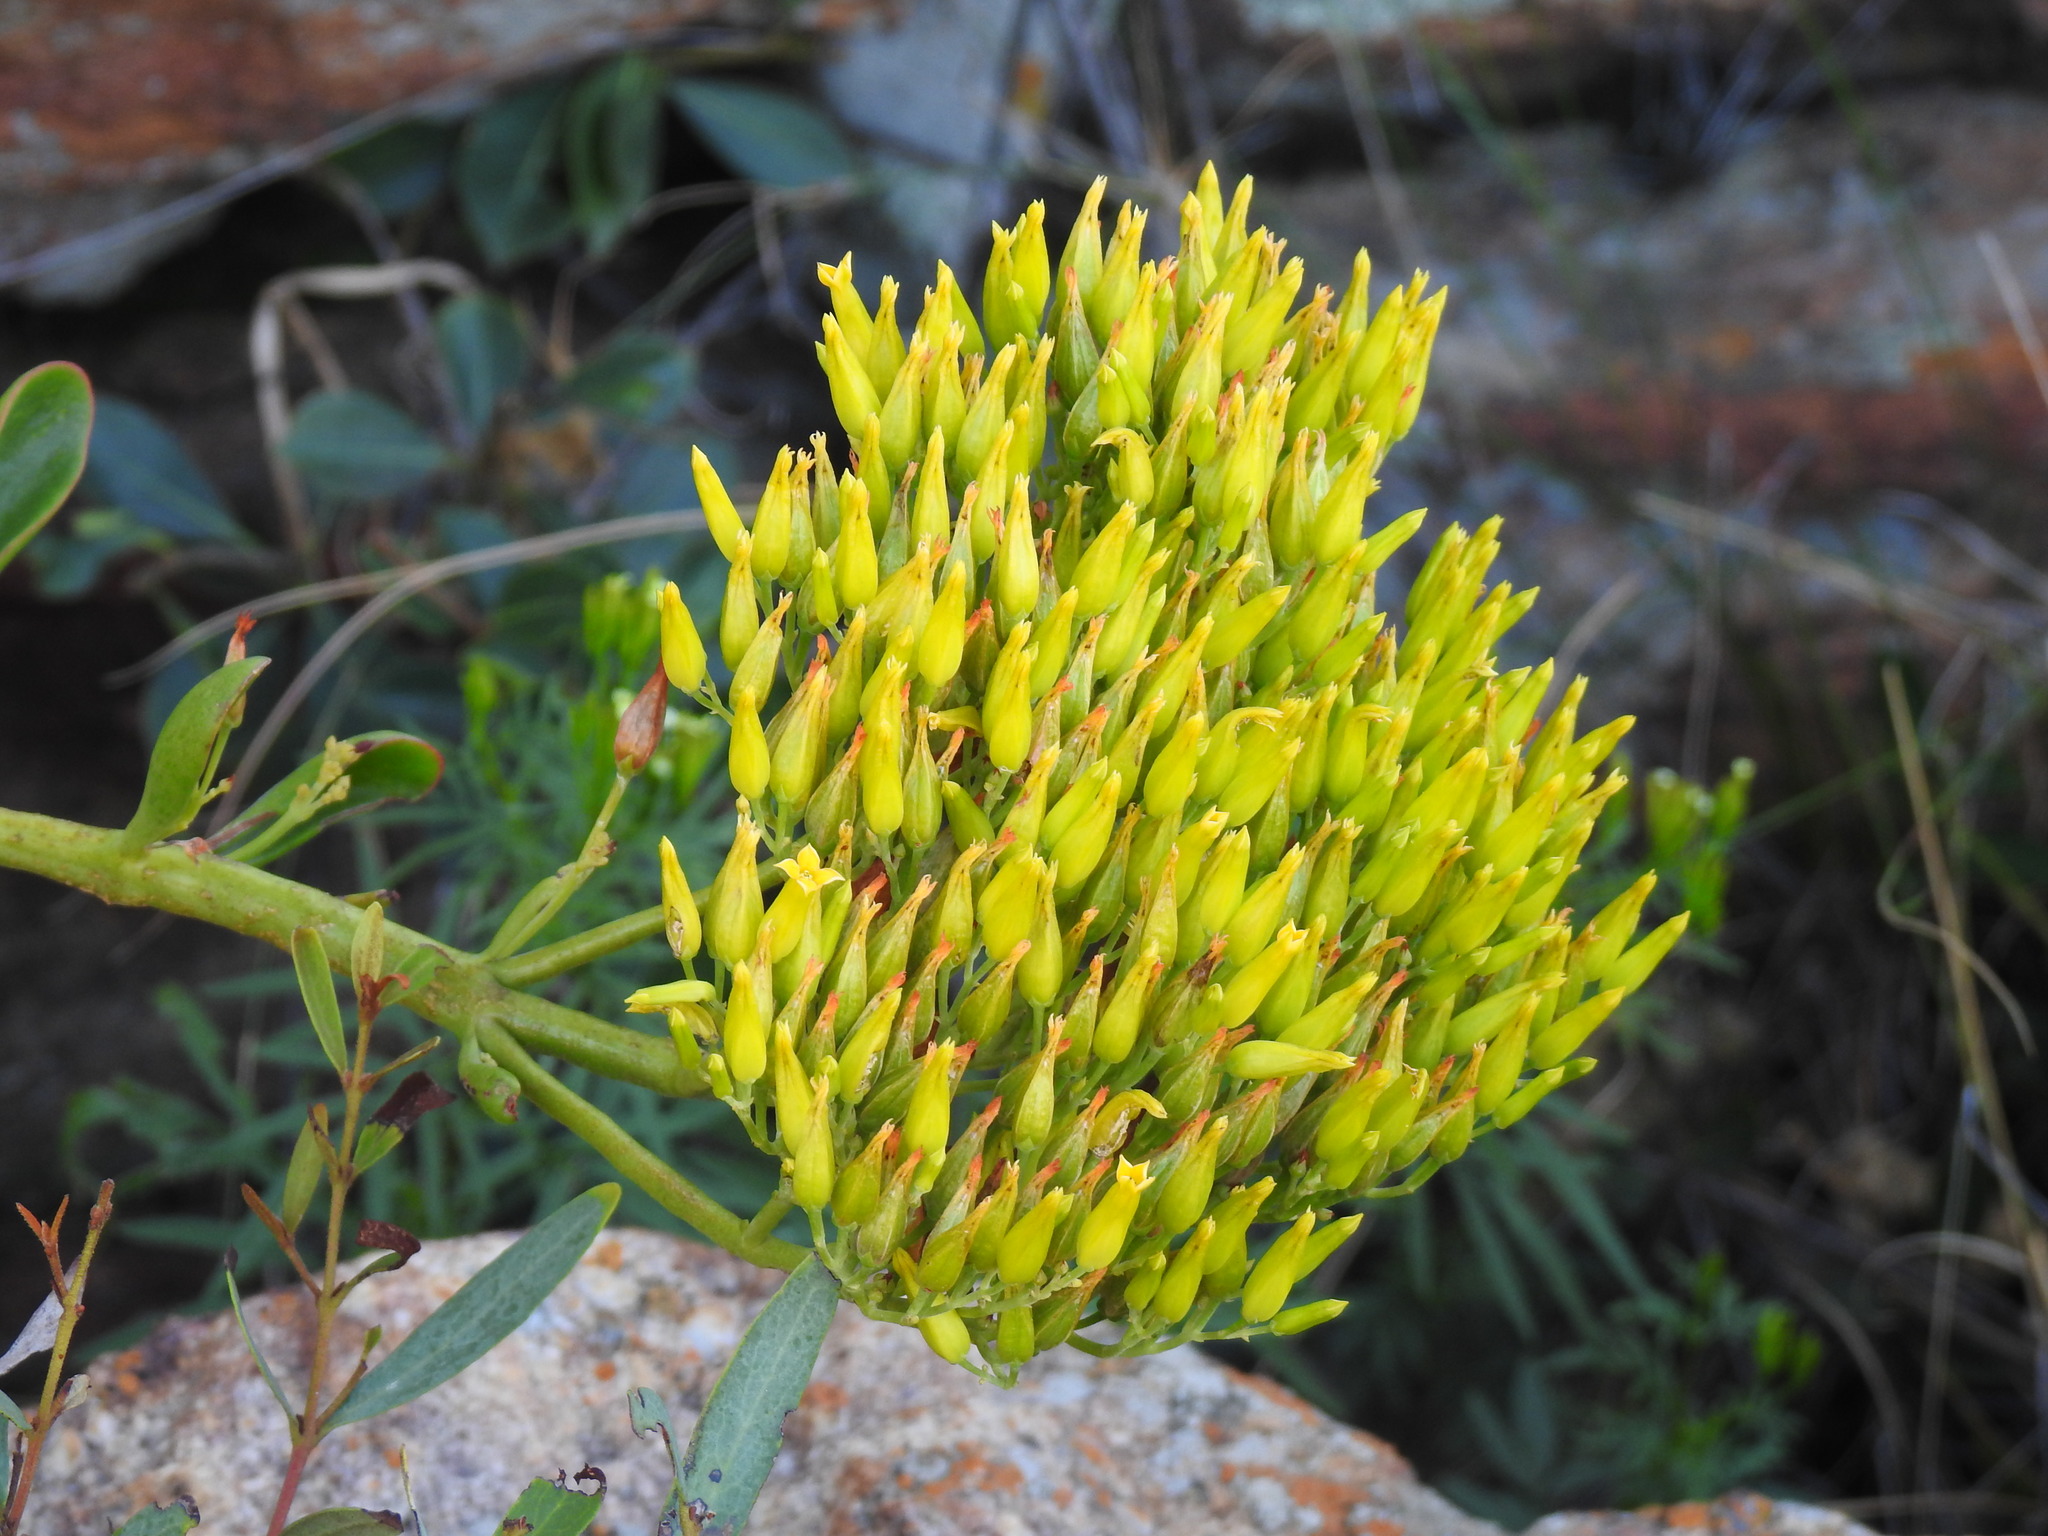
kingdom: Plantae
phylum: Tracheophyta
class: Magnoliopsida
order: Saxifragales
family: Crassulaceae
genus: Kalanchoe
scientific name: Kalanchoe paniculata
